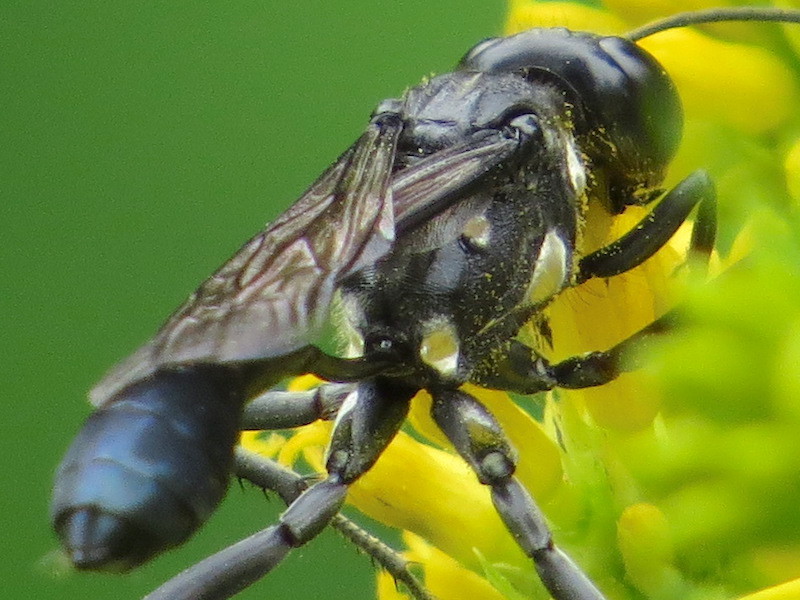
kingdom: Animalia
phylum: Arthropoda
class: Insecta
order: Hymenoptera
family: Sphecidae
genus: Eremnophila
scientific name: Eremnophila aureonotata
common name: Gold-marked thread-waisted wasp
